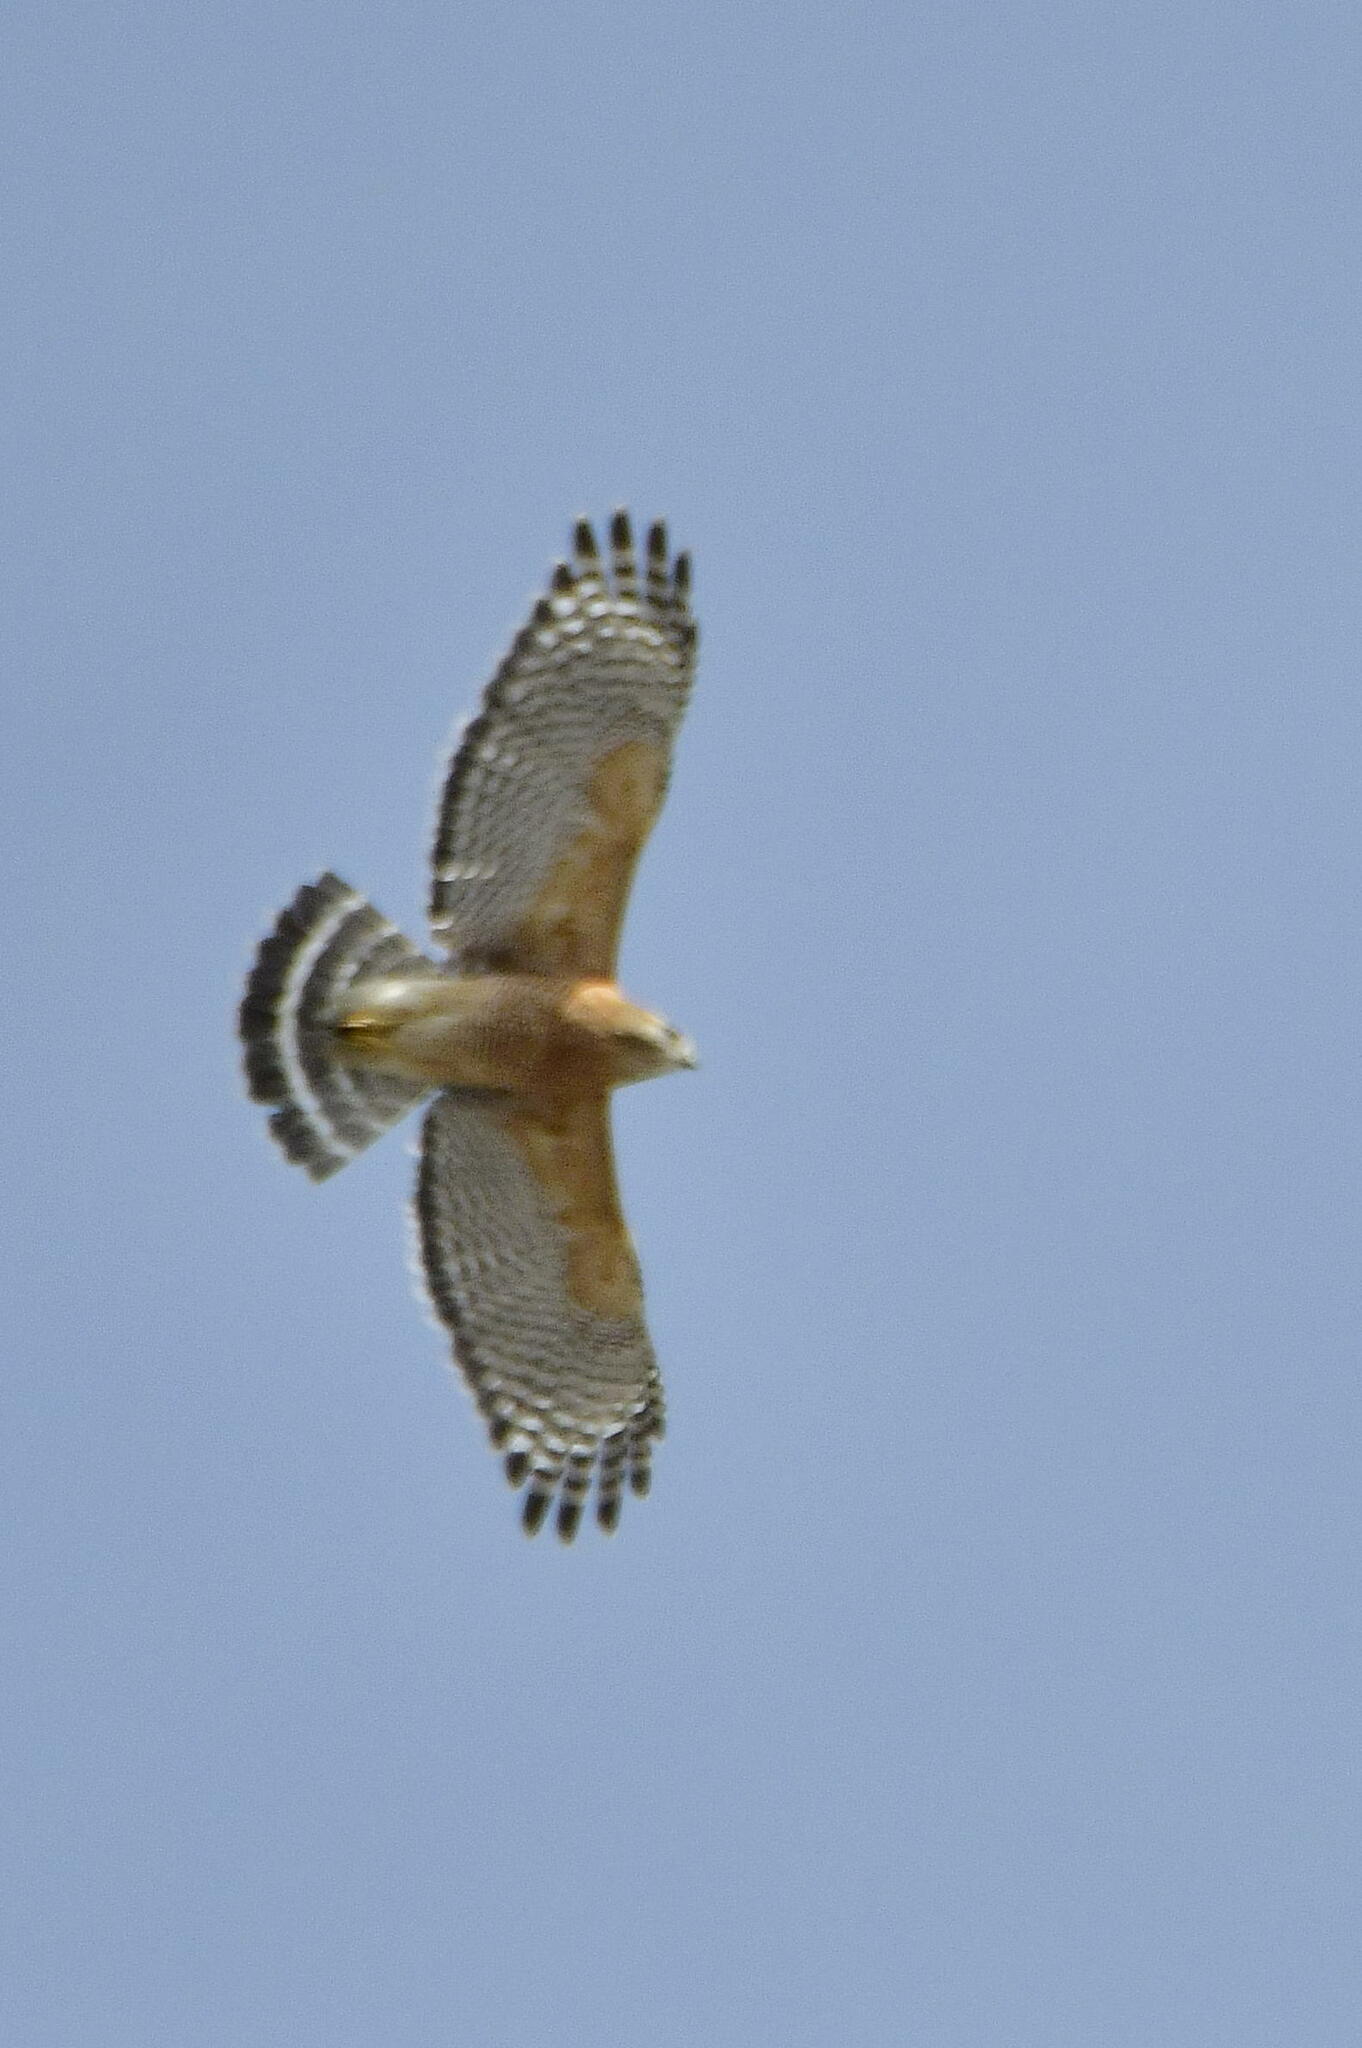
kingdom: Animalia
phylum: Chordata
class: Aves
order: Accipitriformes
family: Accipitridae
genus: Buteo
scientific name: Buteo lineatus
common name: Red-shouldered hawk
